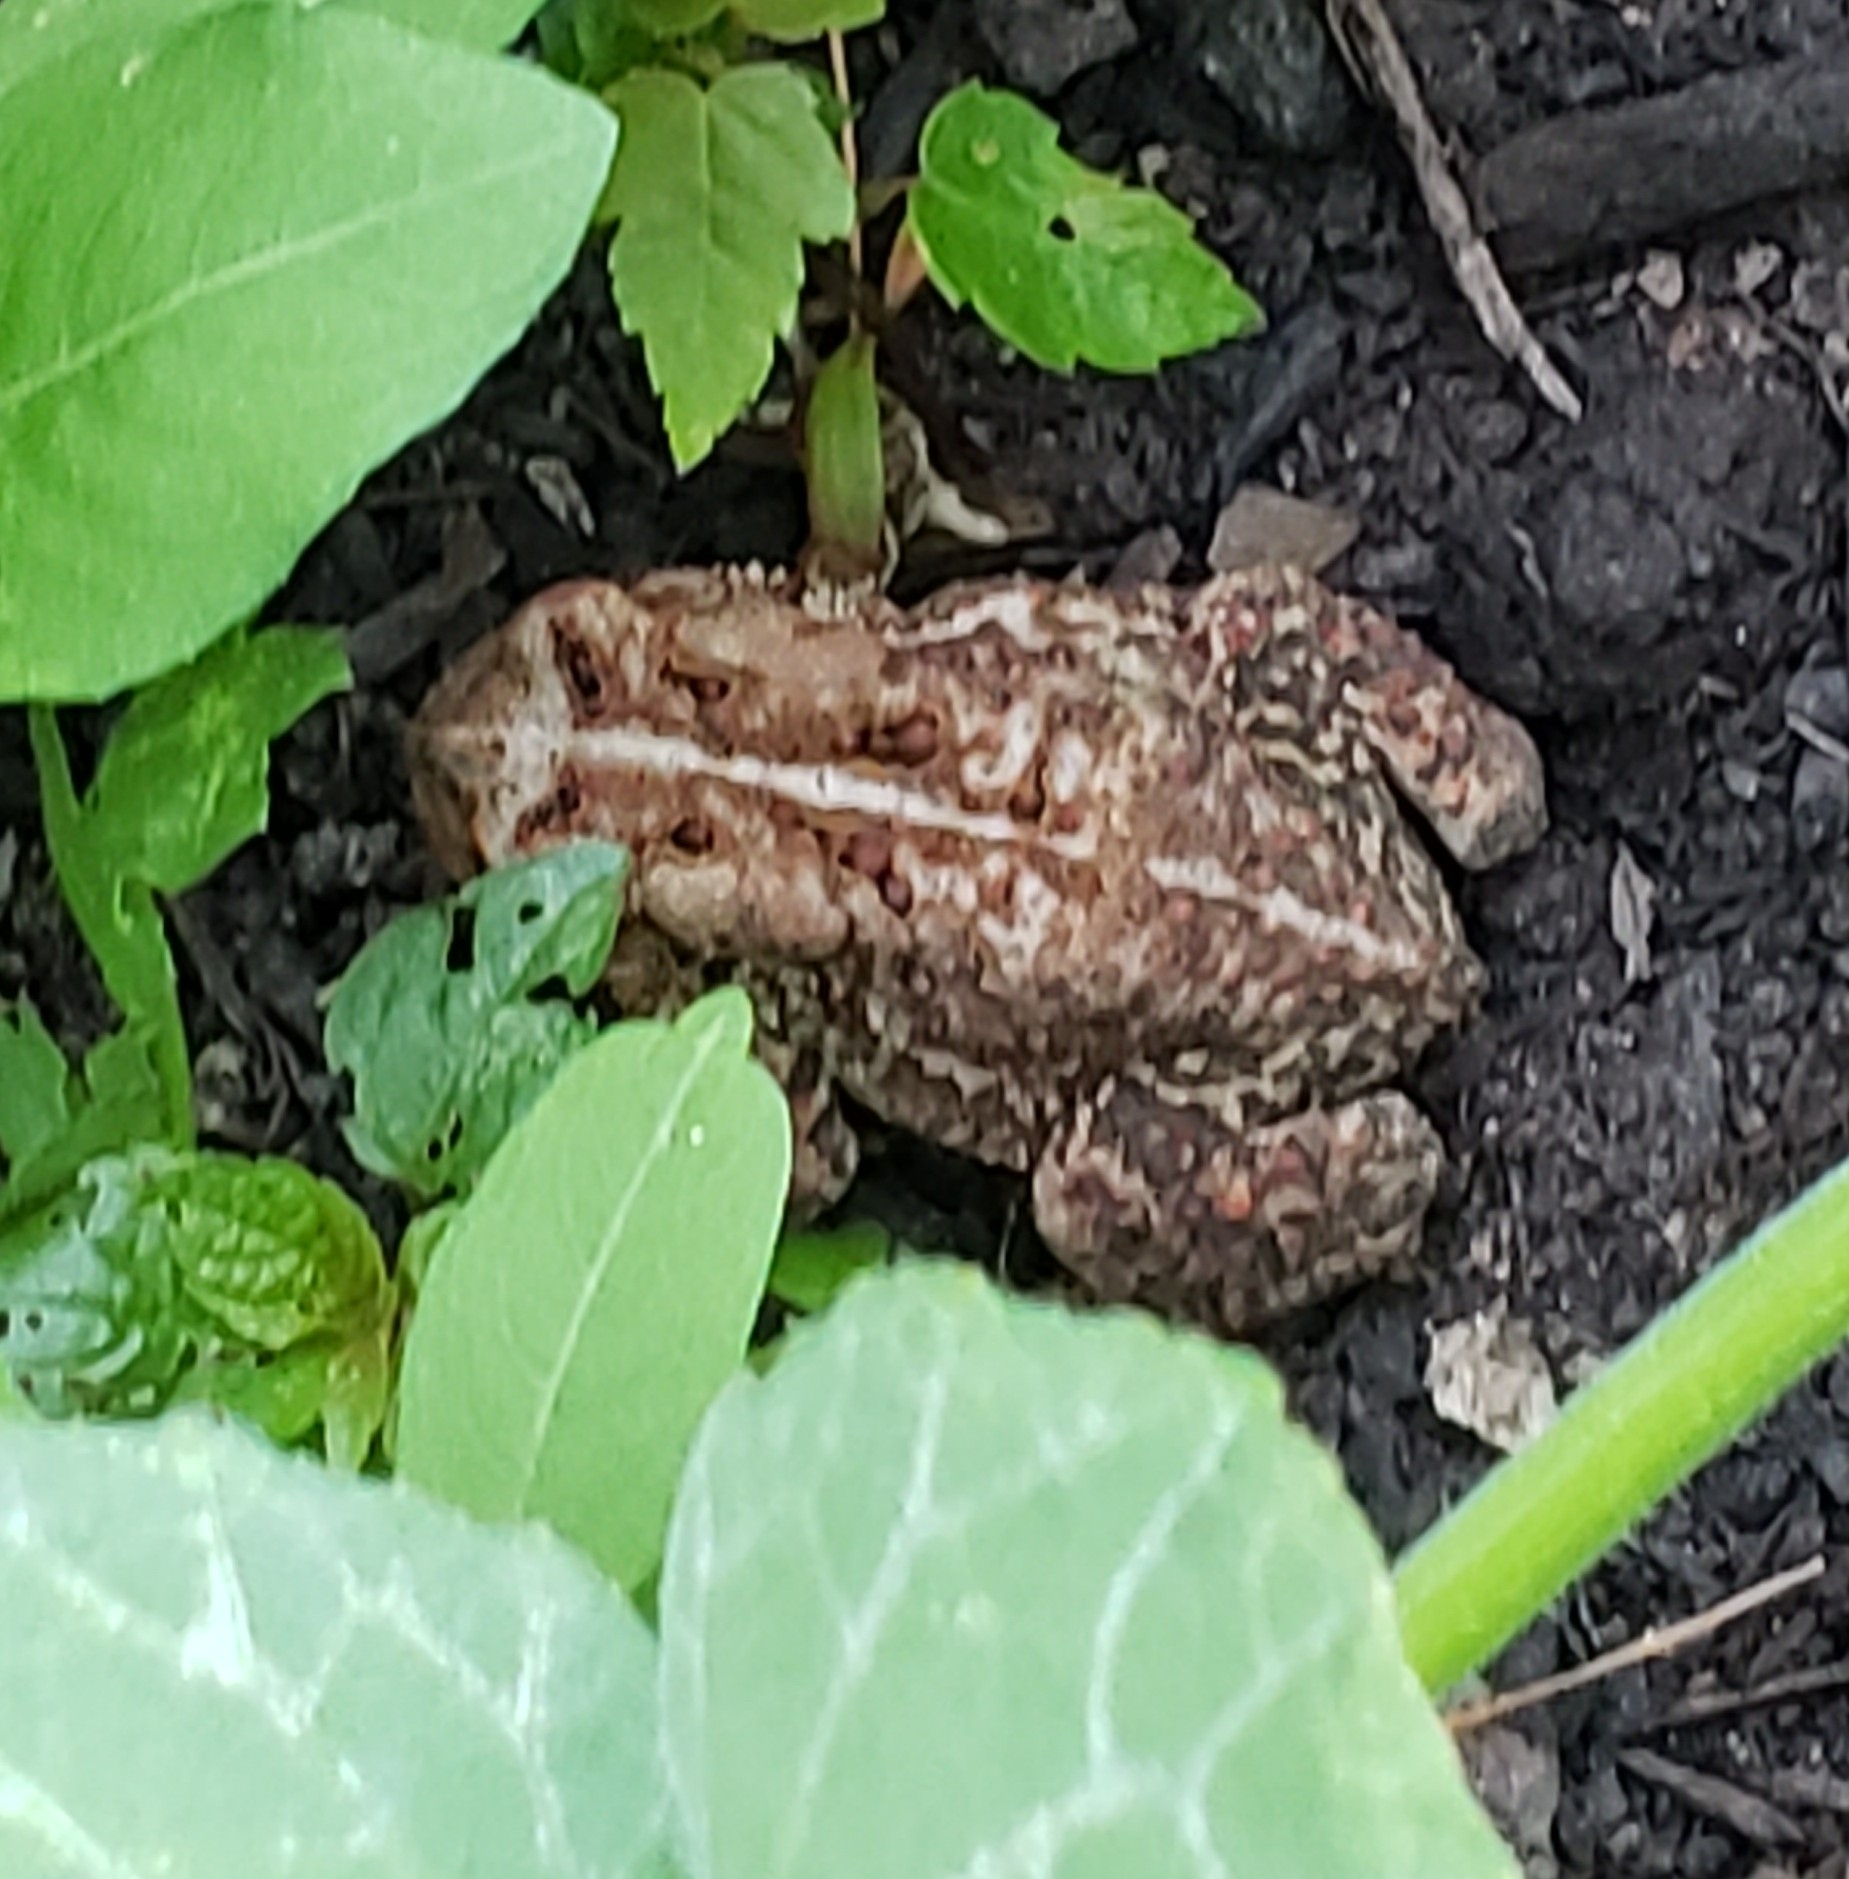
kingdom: Animalia
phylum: Chordata
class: Amphibia
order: Anura
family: Bufonidae
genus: Anaxyrus
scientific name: Anaxyrus americanus
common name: American toad
